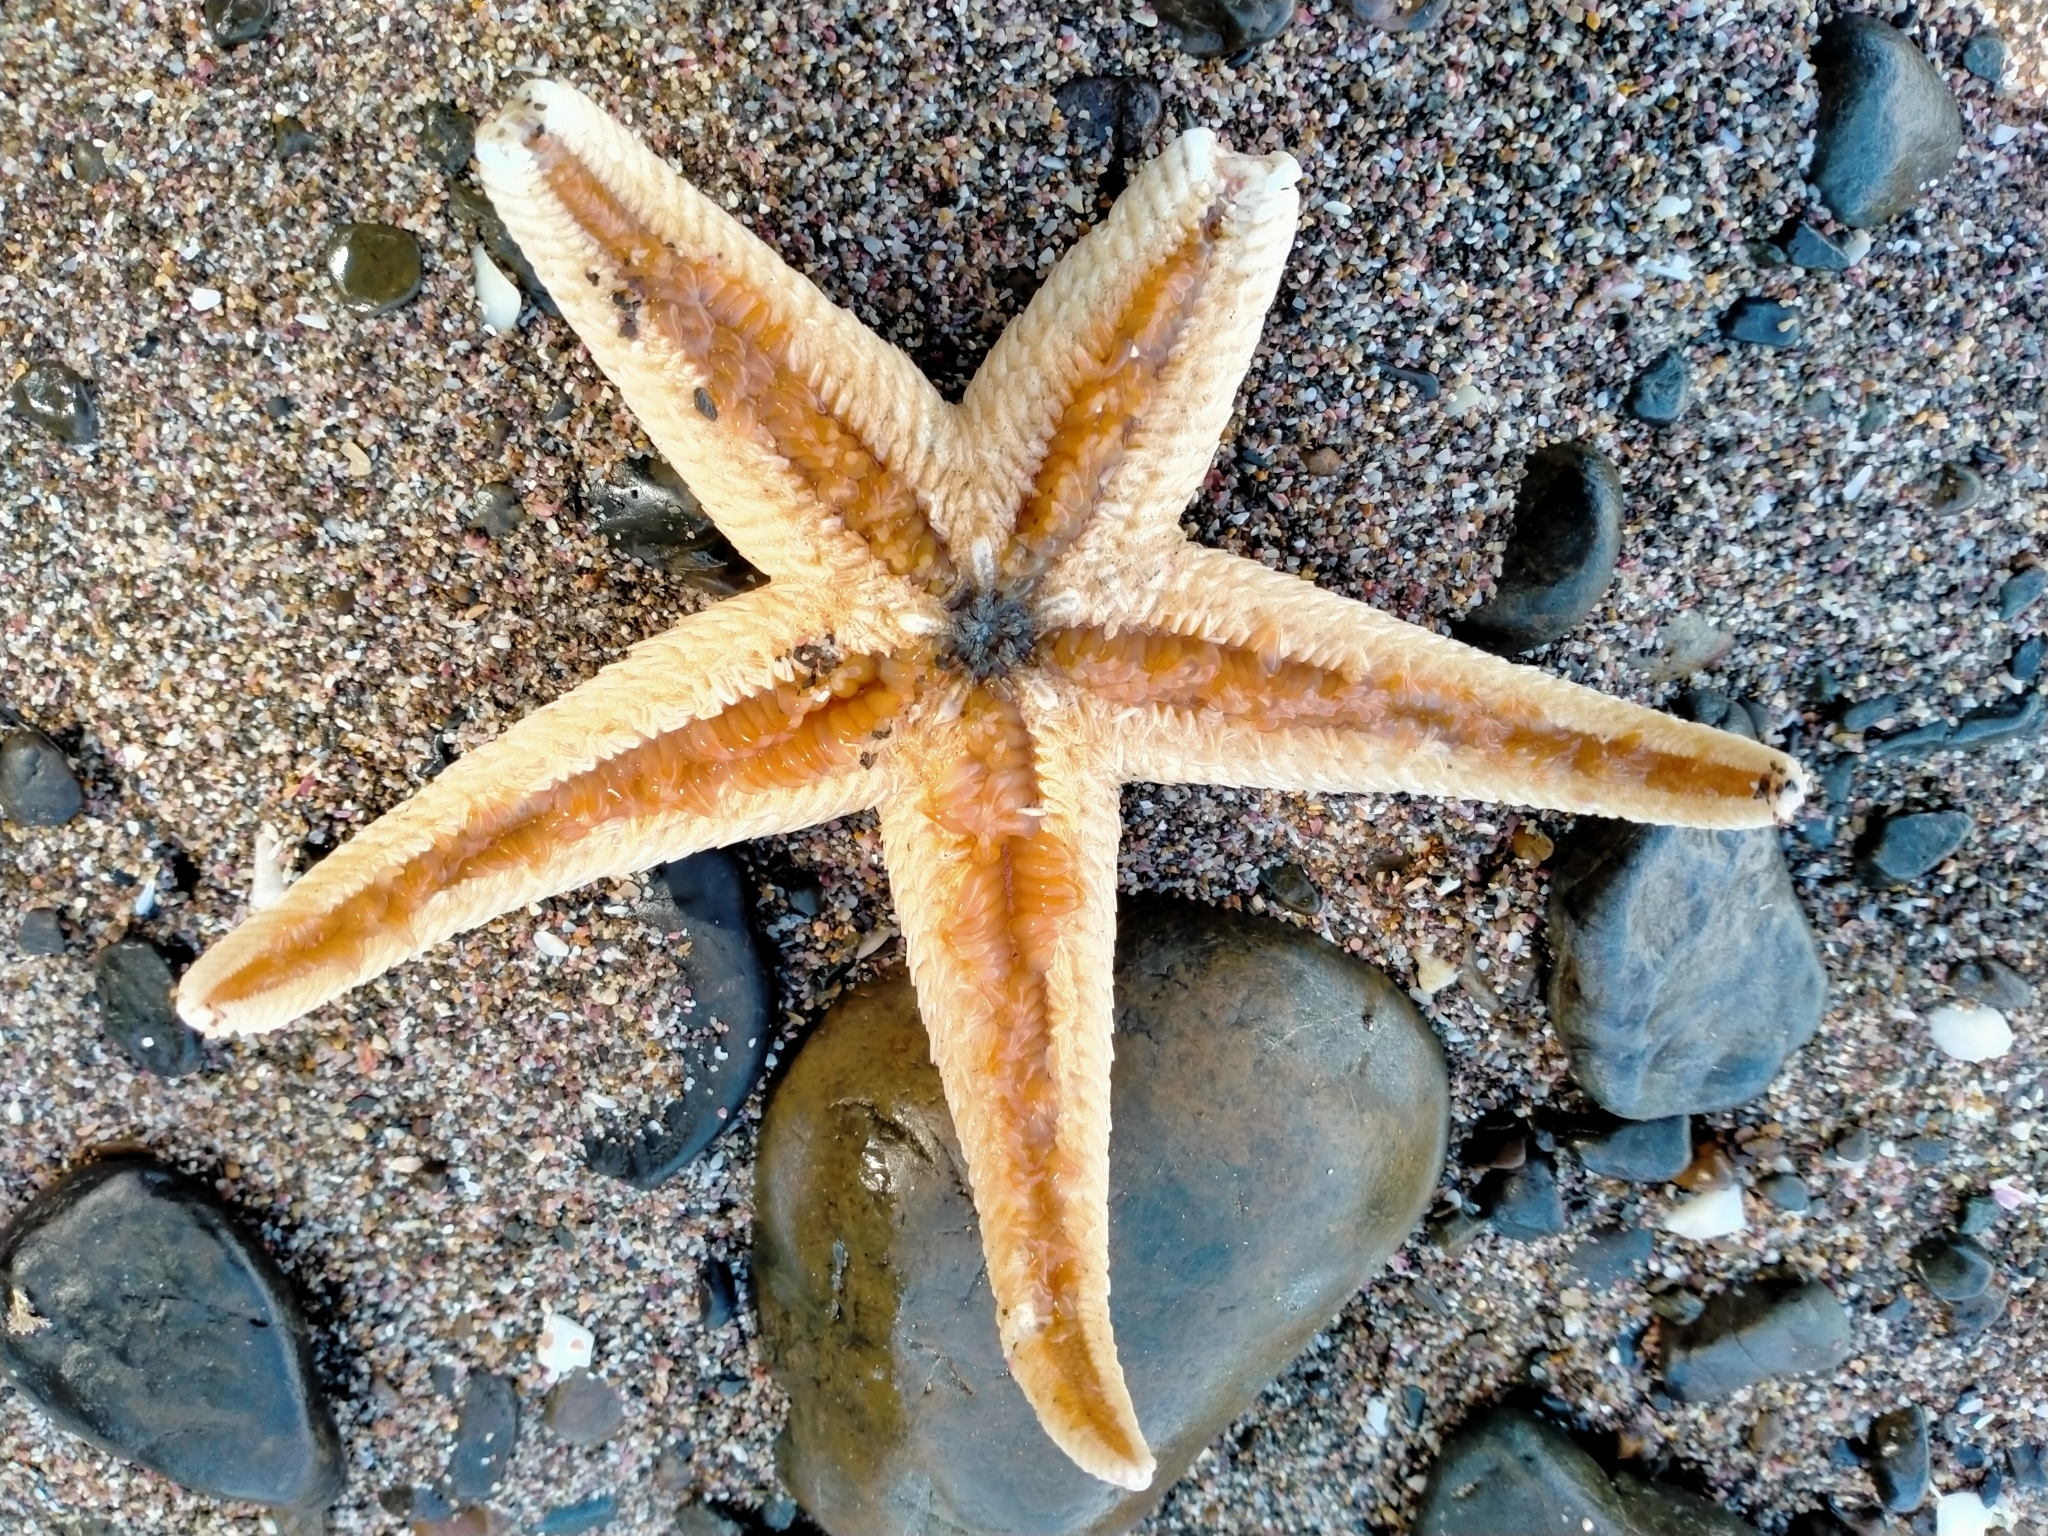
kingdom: Animalia
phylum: Echinodermata
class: Asteroidea
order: Paxillosida
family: Astropectinidae
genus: Astropecten
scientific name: Astropecten polyacanthus
